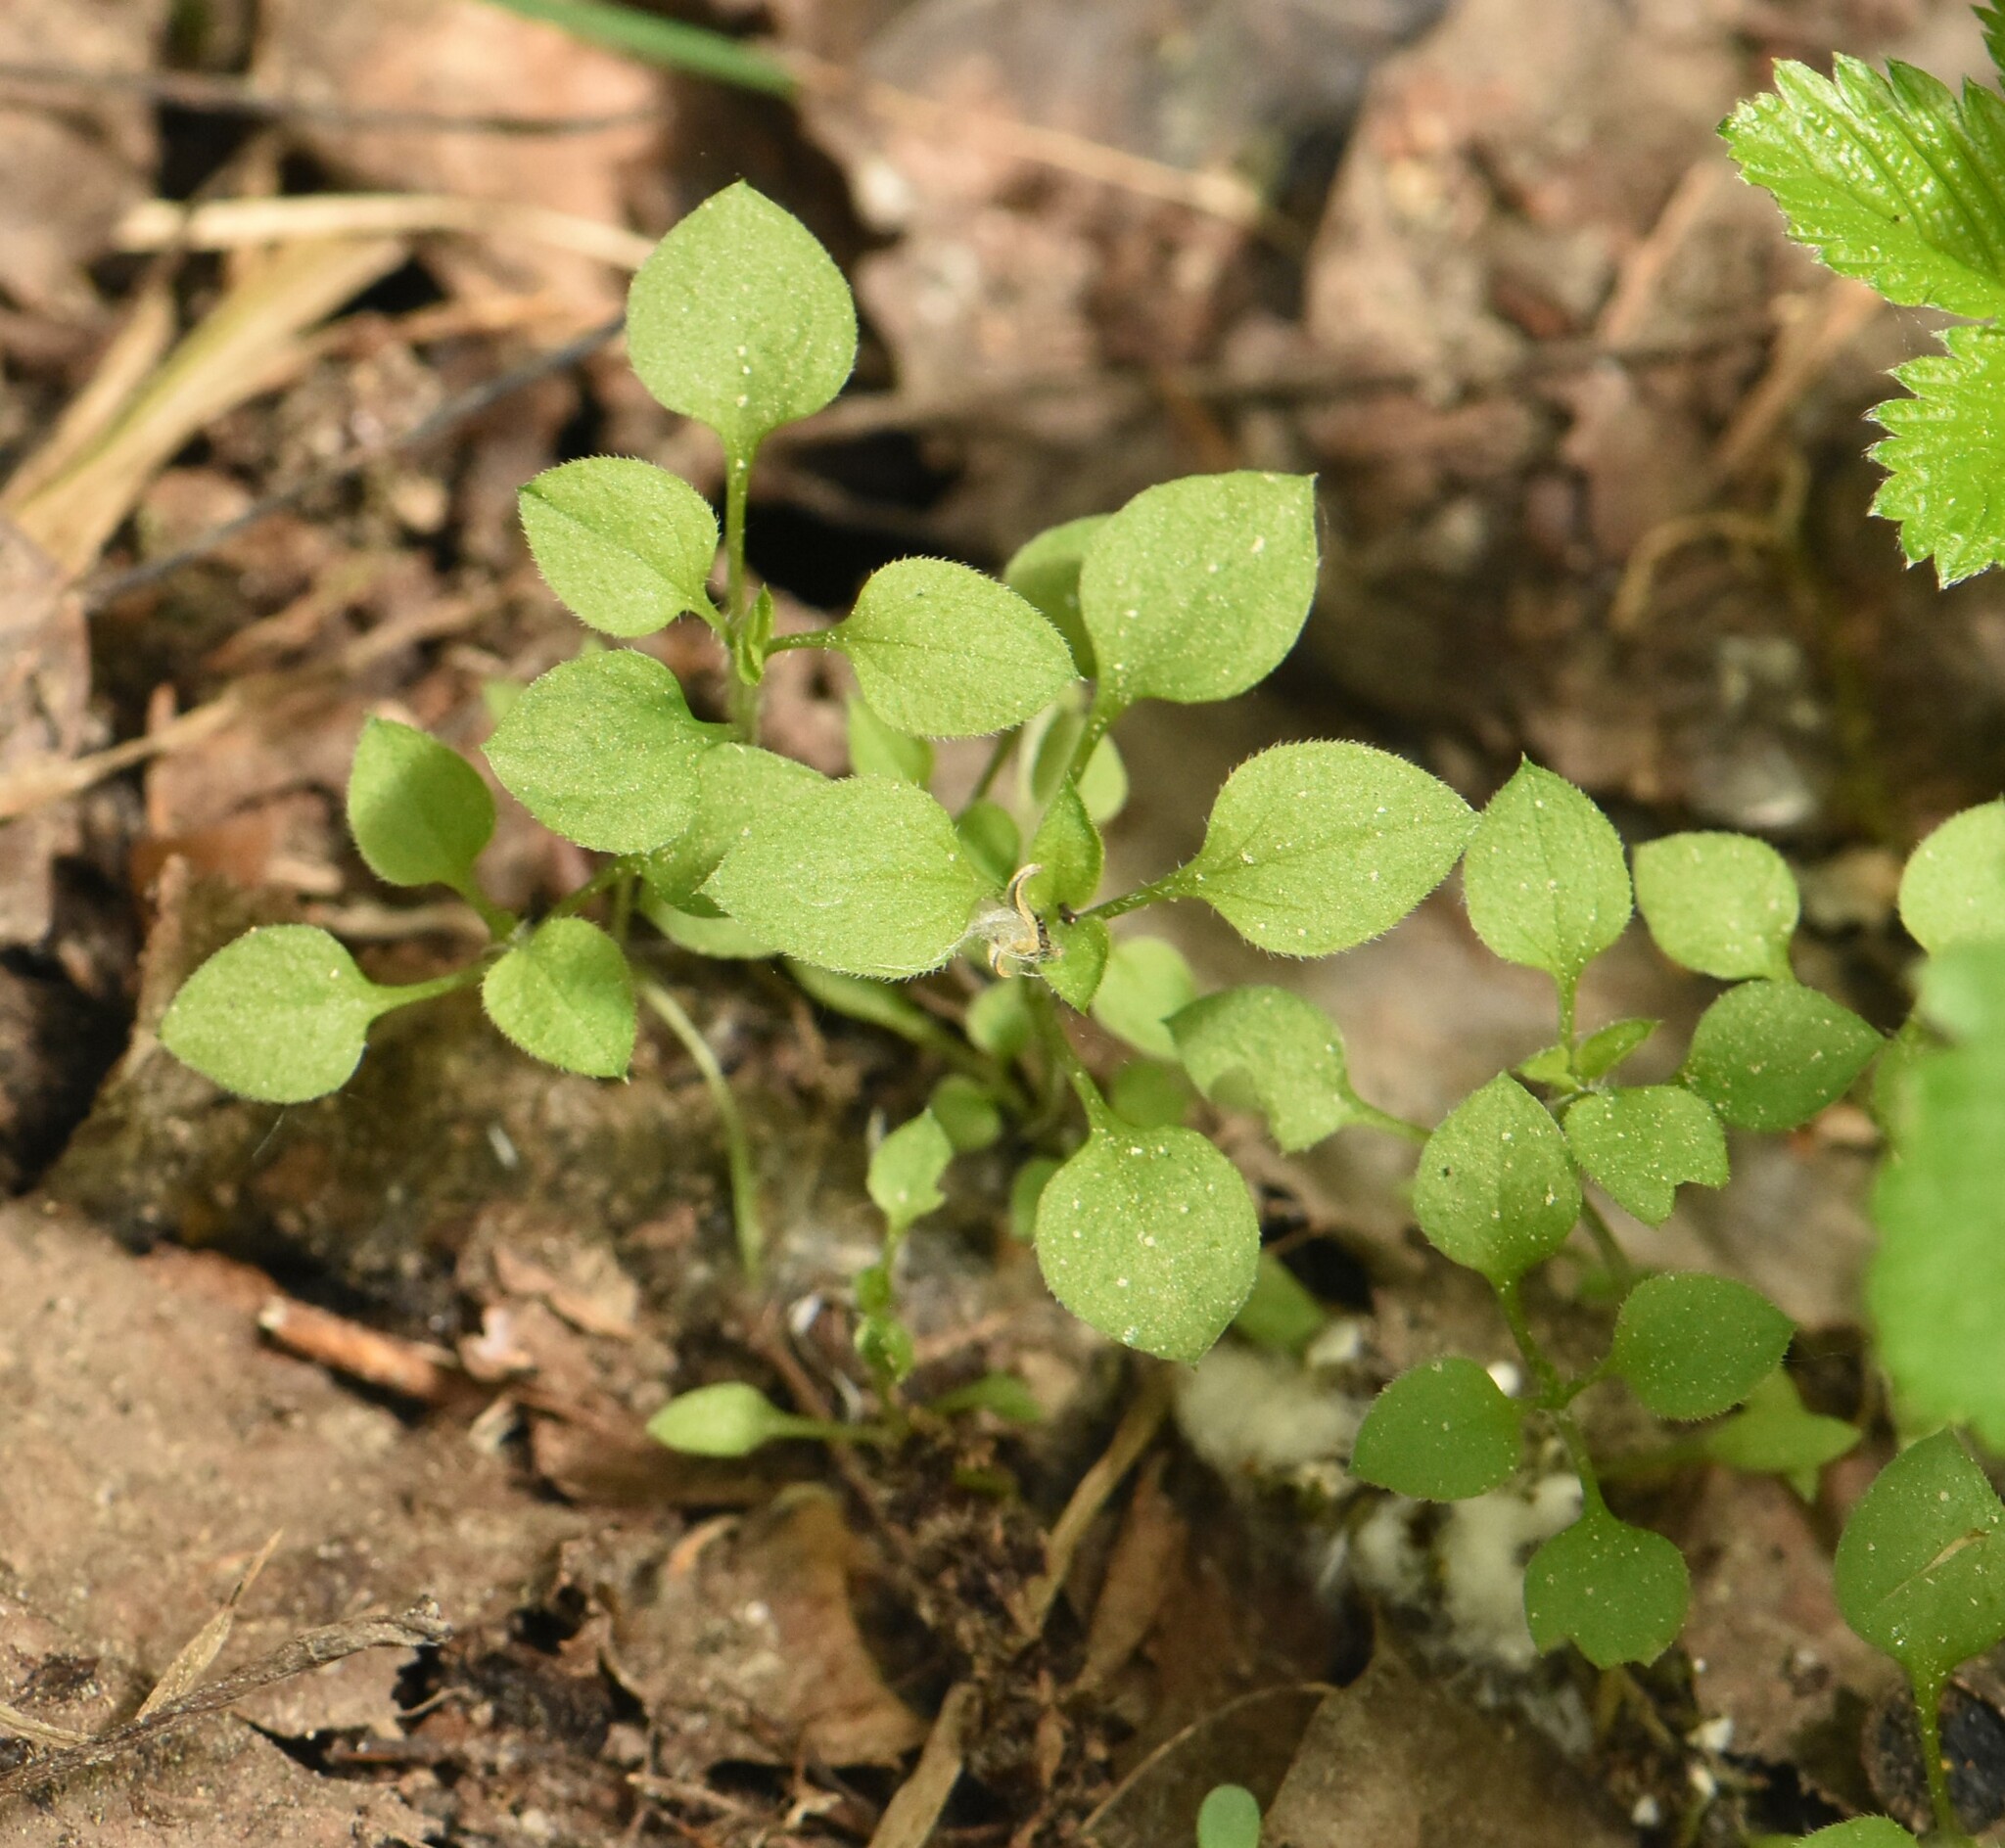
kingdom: Plantae
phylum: Tracheophyta
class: Magnoliopsida
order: Caryophyllales
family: Caryophyllaceae
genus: Moehringia
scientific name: Moehringia trinervia
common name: Three-nerved sandwort
